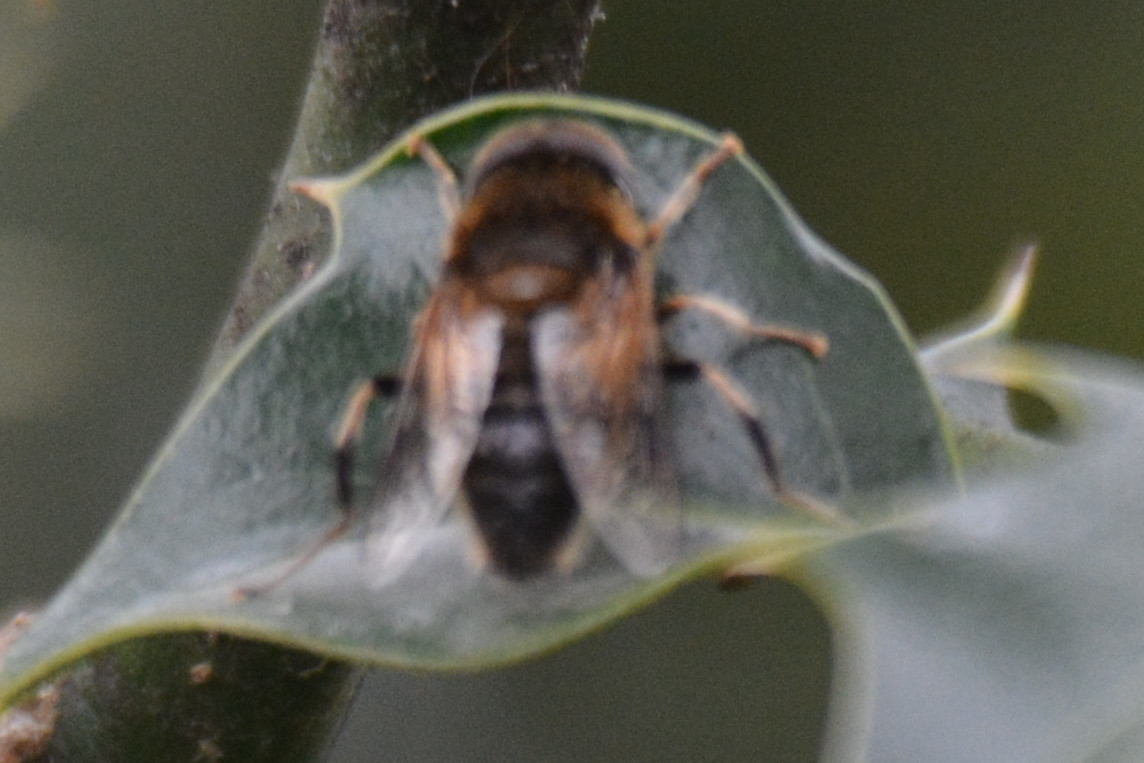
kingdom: Animalia
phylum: Arthropoda
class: Insecta
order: Diptera
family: Syrphidae
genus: Eristalis
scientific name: Eristalis pertinax
